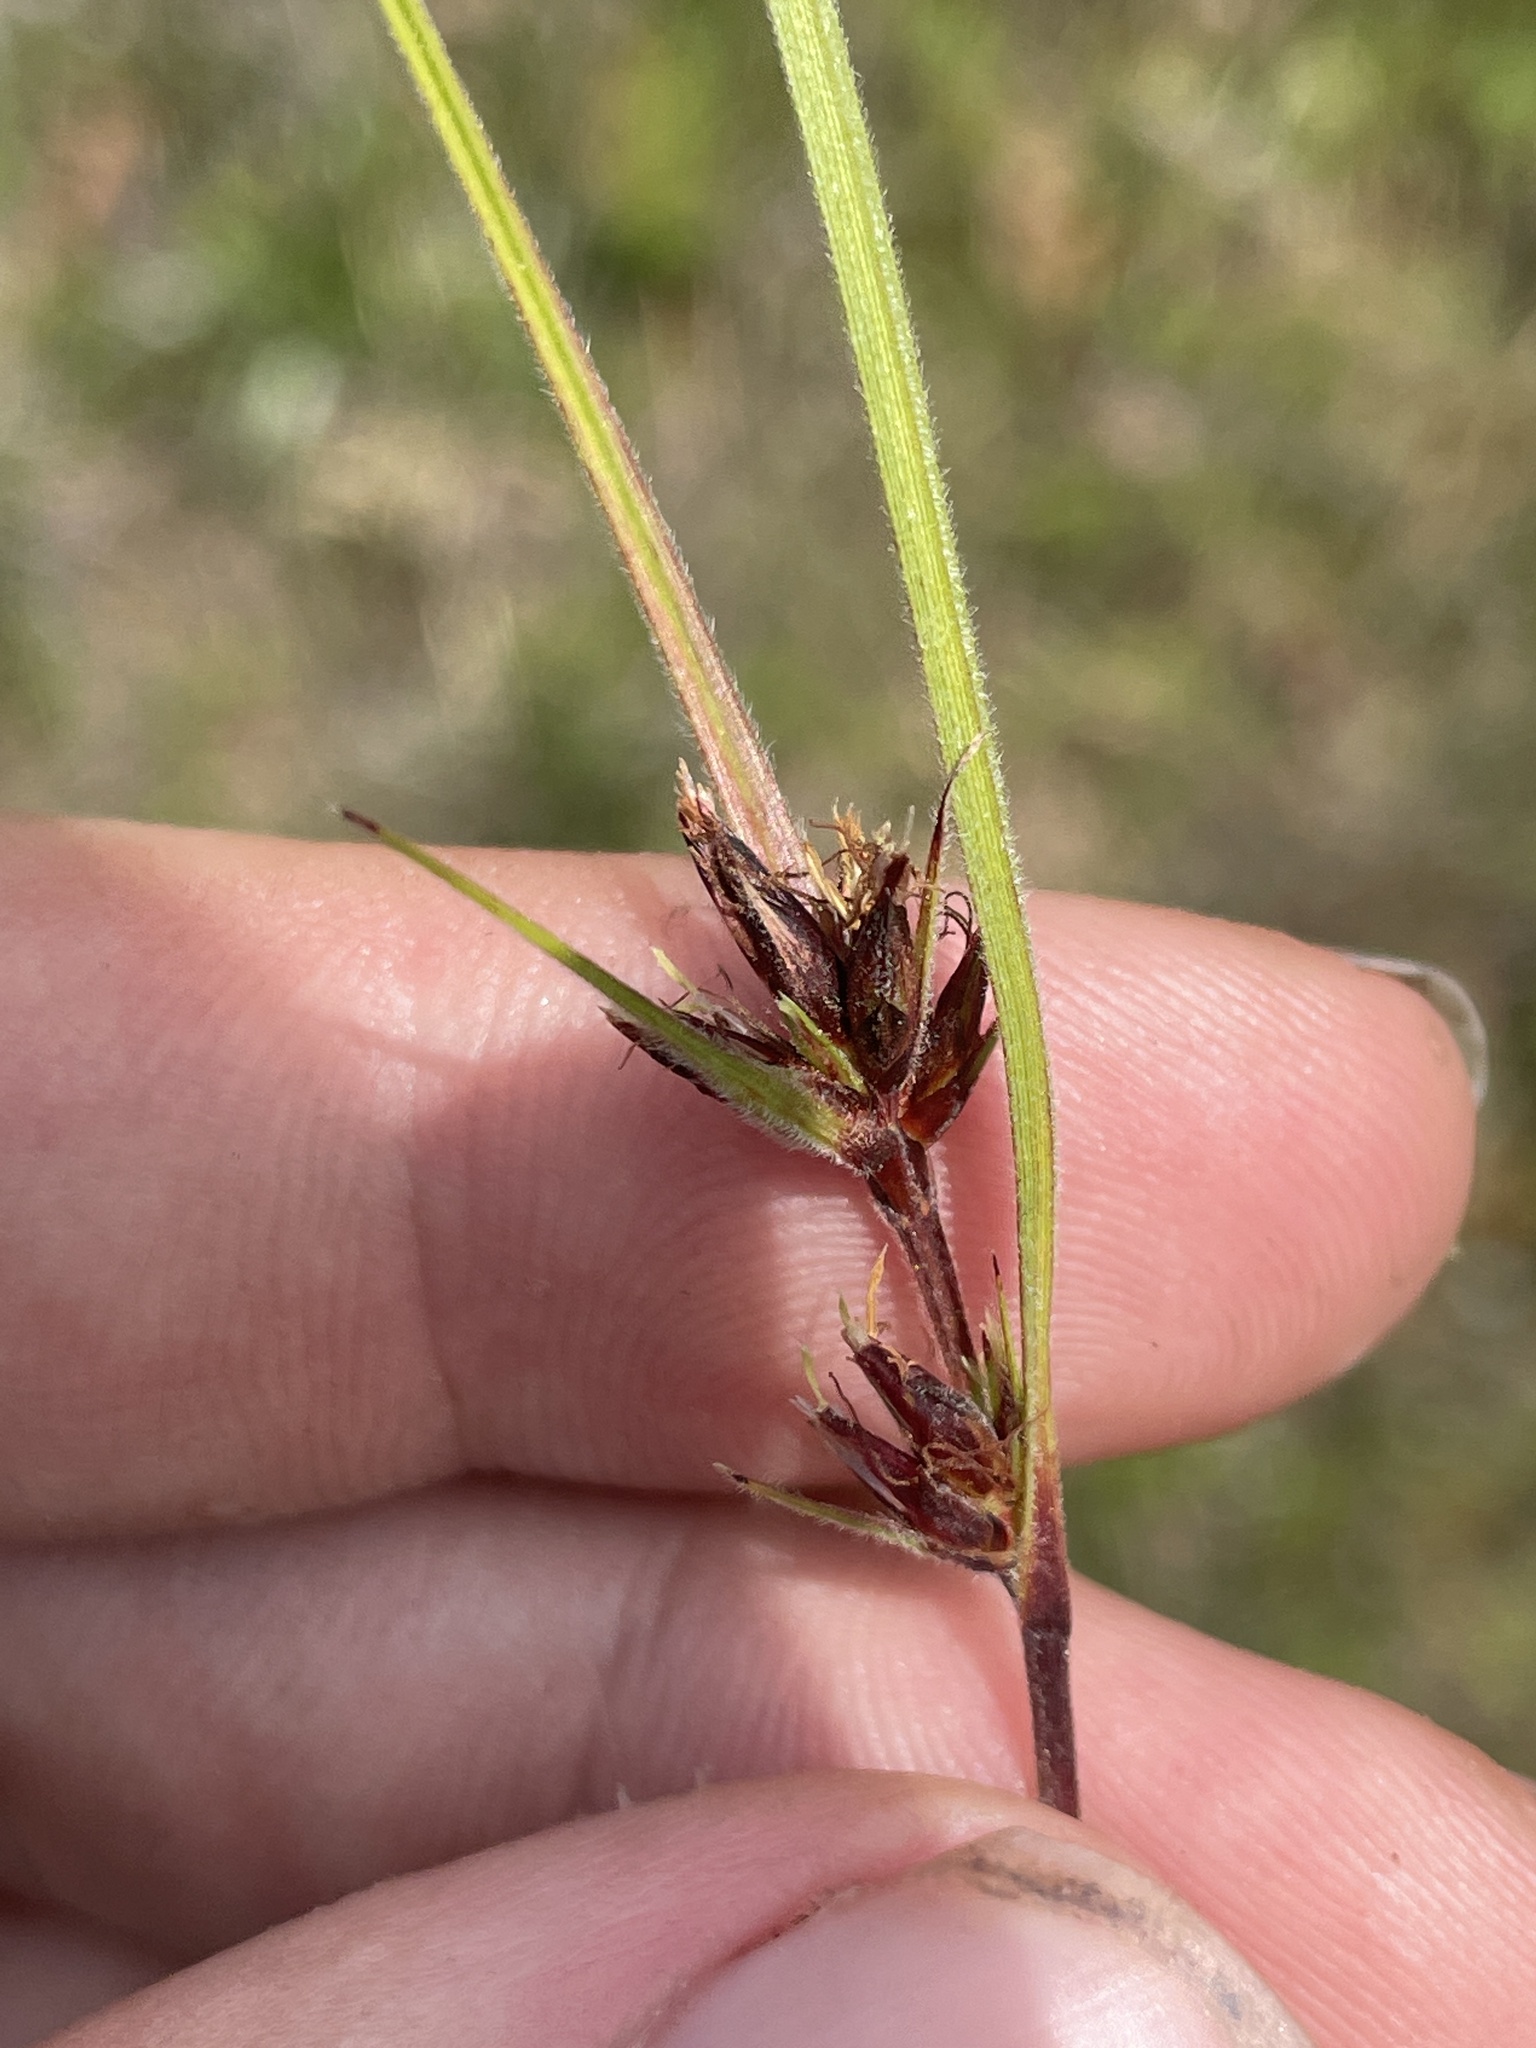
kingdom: Plantae
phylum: Tracheophyta
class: Liliopsida
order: Poales
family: Cyperaceae
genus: Scleria
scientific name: Scleria ciliata
